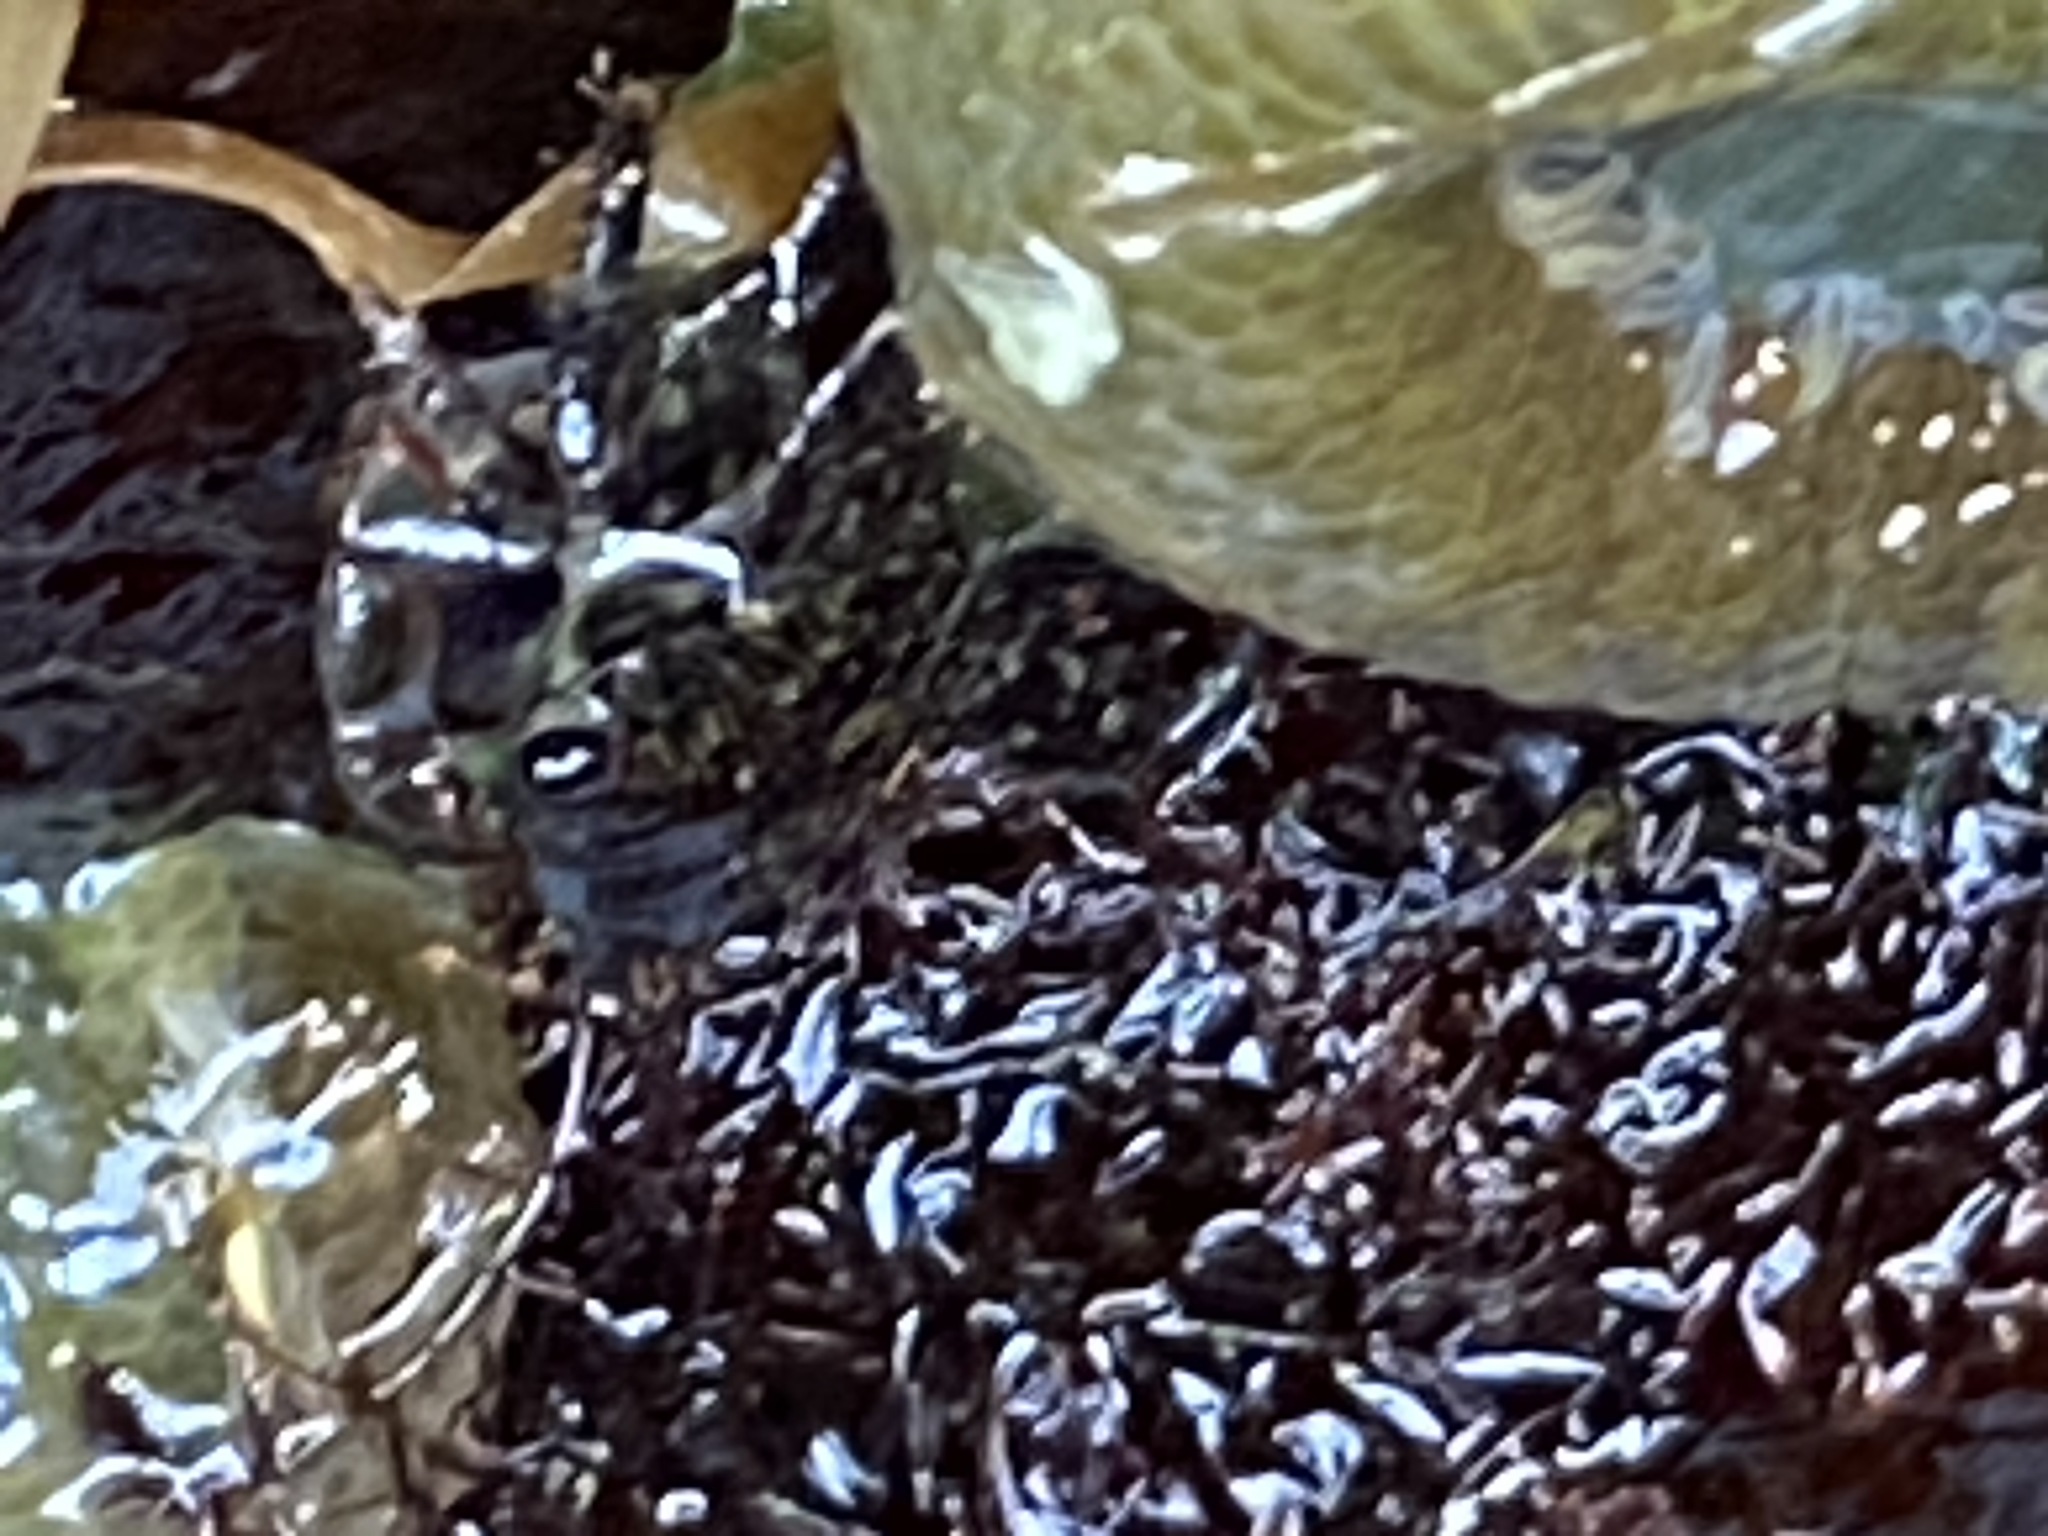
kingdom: Animalia
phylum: Arthropoda
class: Malacostraca
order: Decapoda
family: Grapsidae
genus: Pachygrapsus
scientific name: Pachygrapsus crassipes
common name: Striped shore crab
